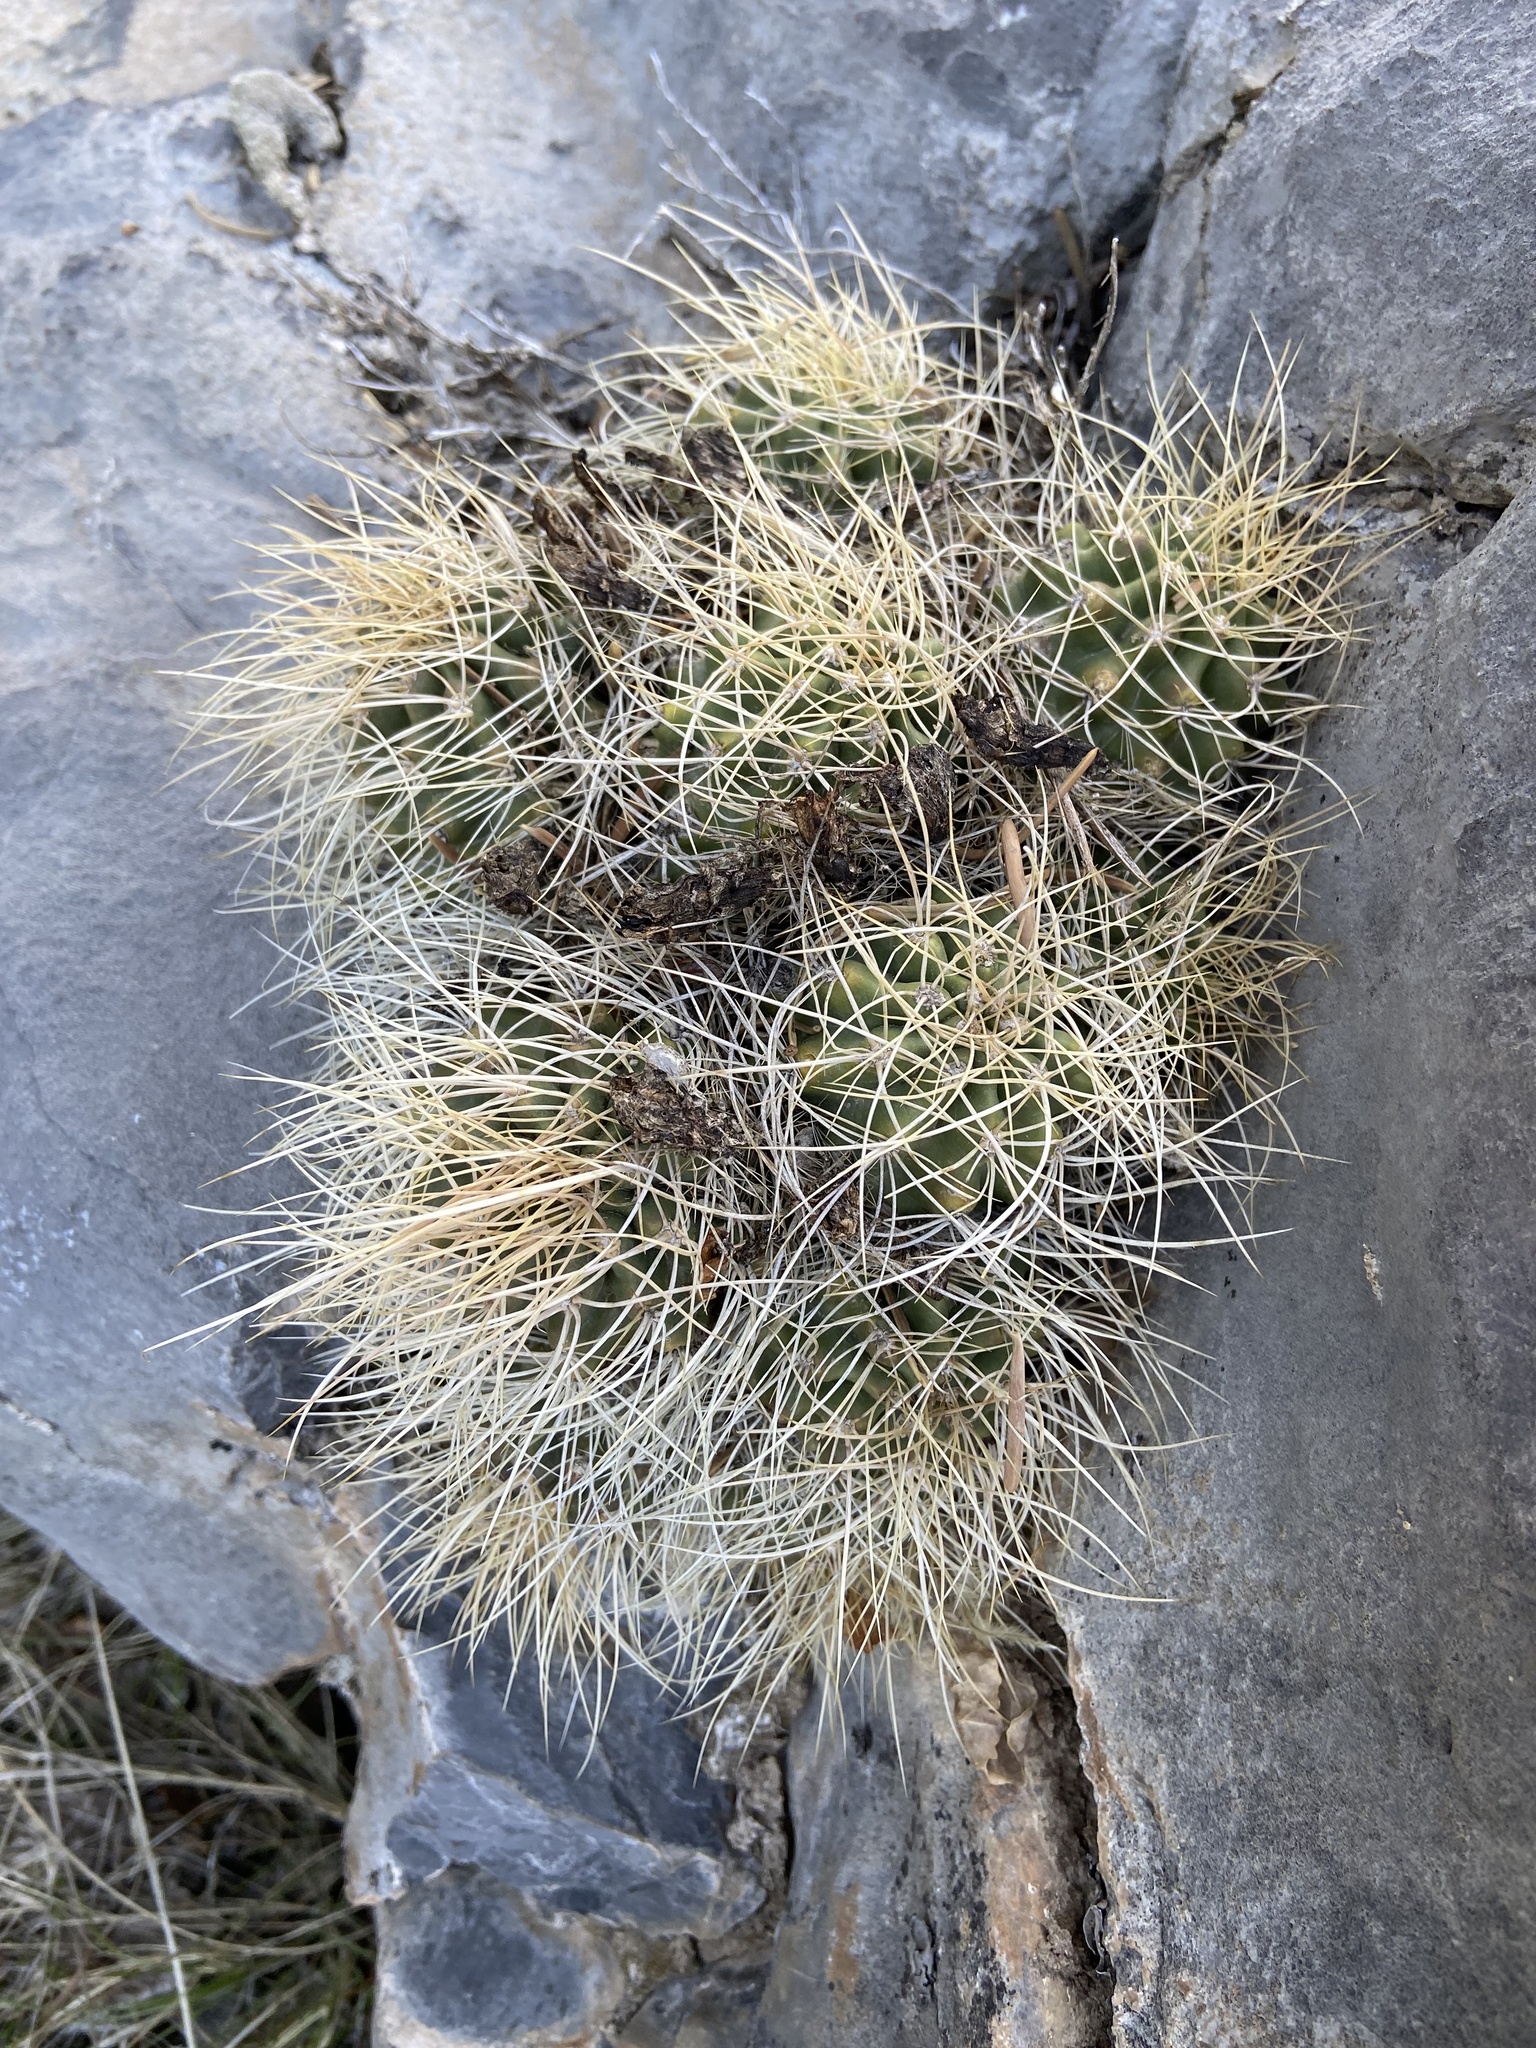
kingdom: Plantae
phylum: Tracheophyta
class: Magnoliopsida
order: Caryophyllales
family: Cactaceae
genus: Echinocereus
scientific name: Echinocereus triglochidiatus
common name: Claretcup hedgehog
